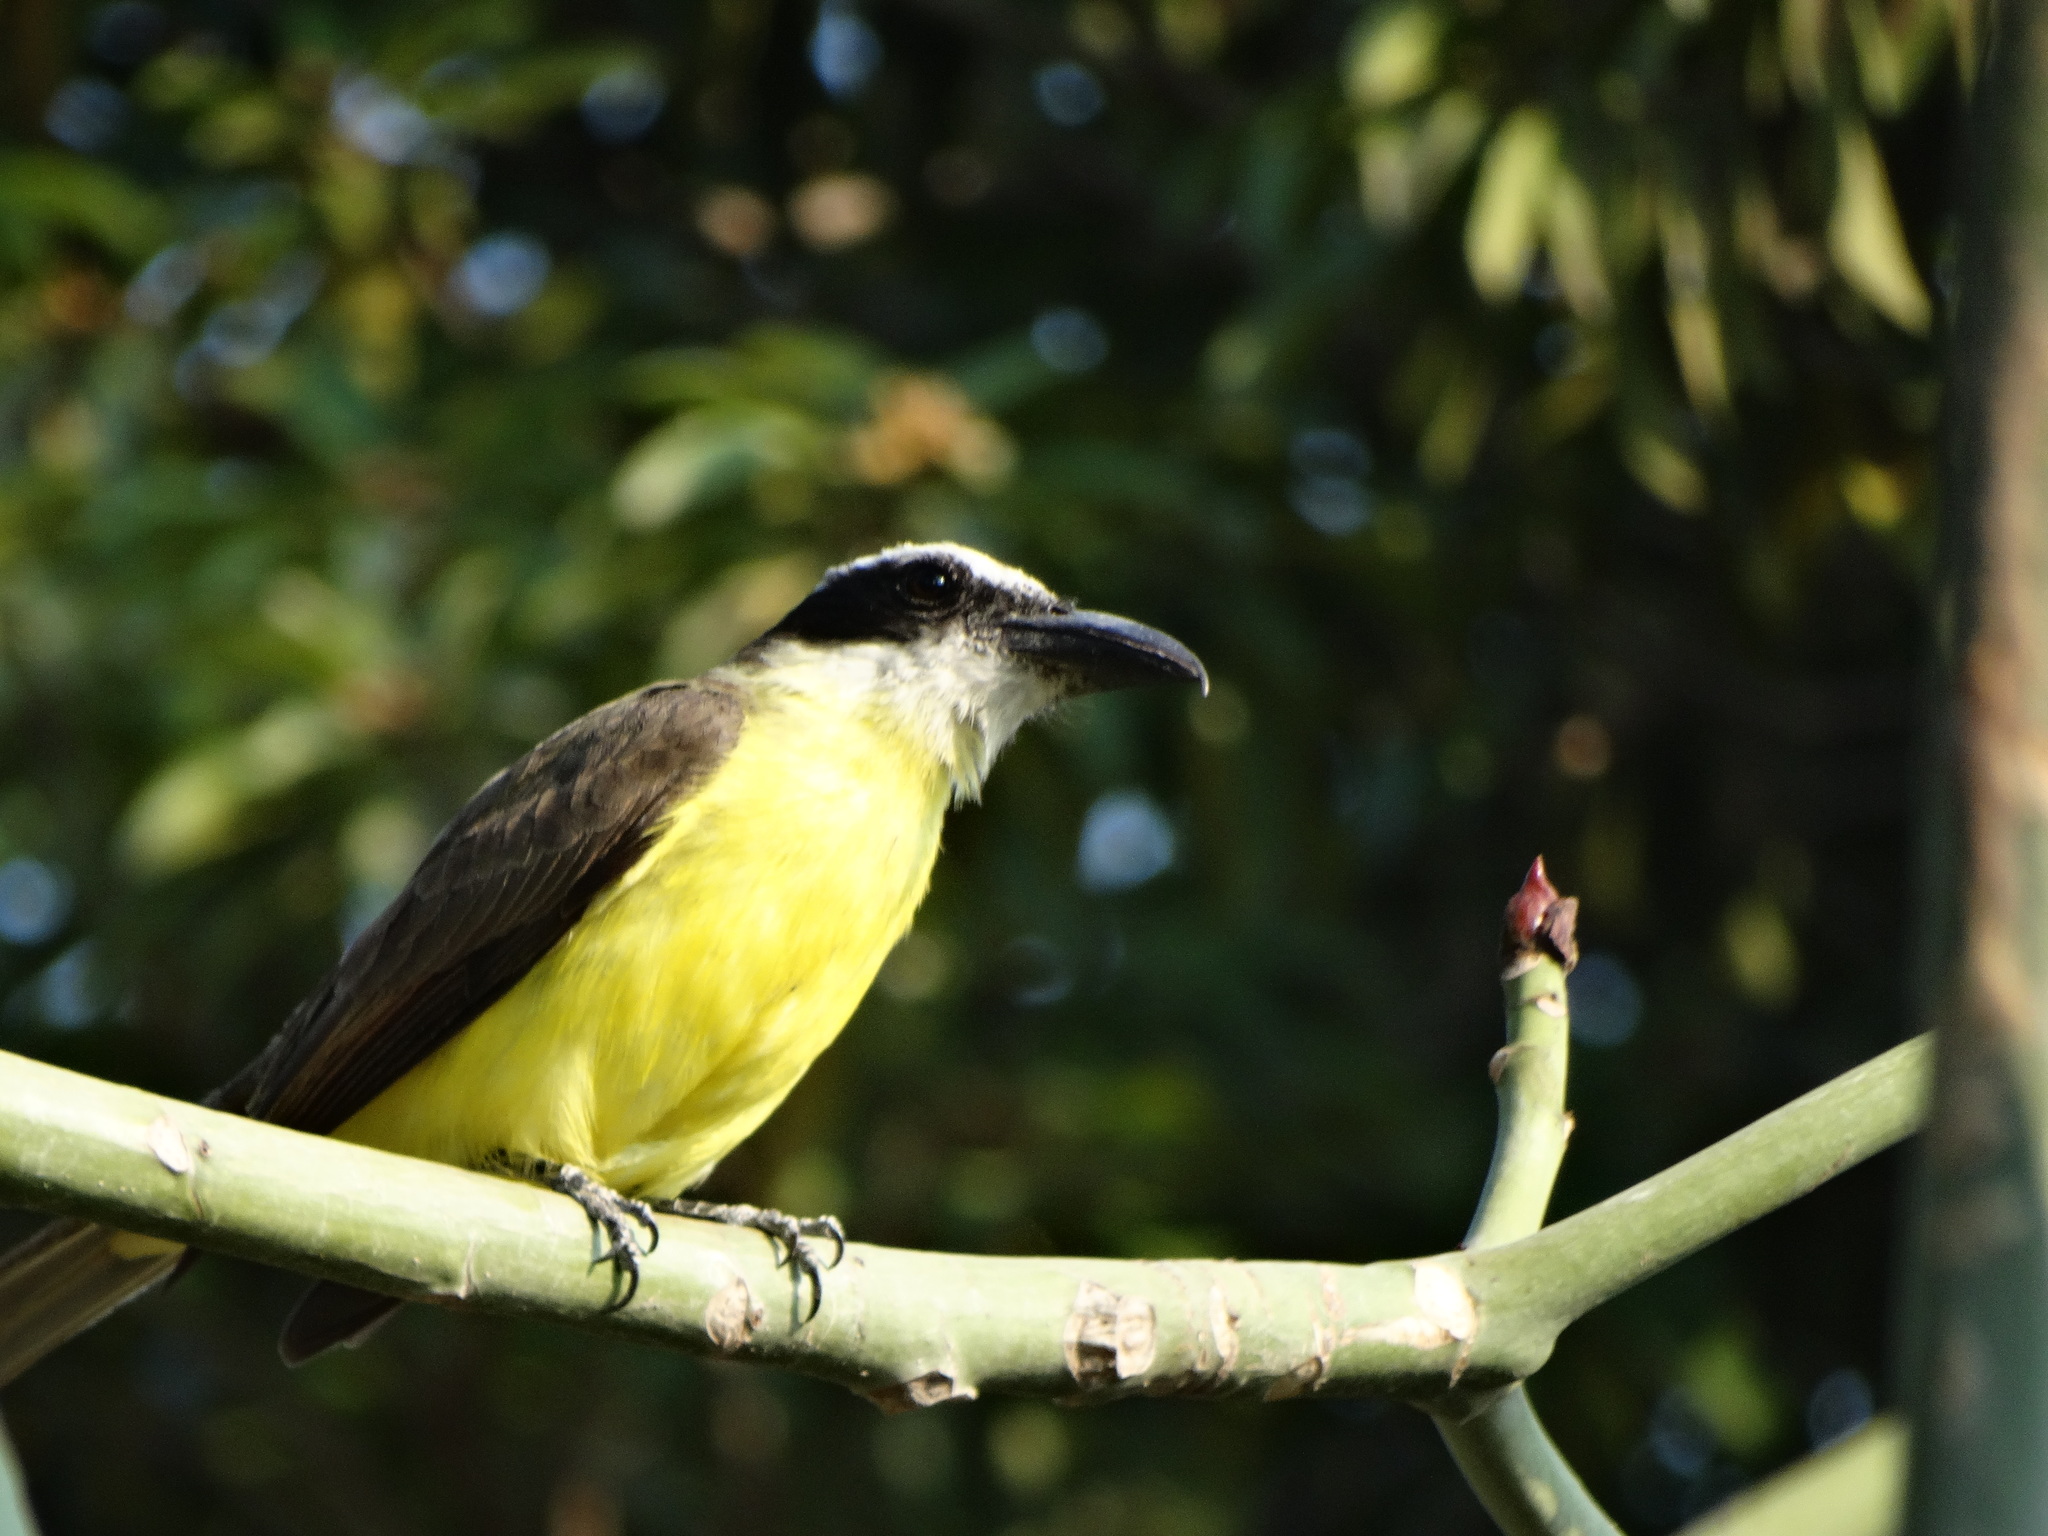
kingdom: Animalia
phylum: Chordata
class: Aves
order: Passeriformes
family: Tyrannidae
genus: Megarynchus
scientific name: Megarynchus pitangua
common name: Boat-billed flycatcher
